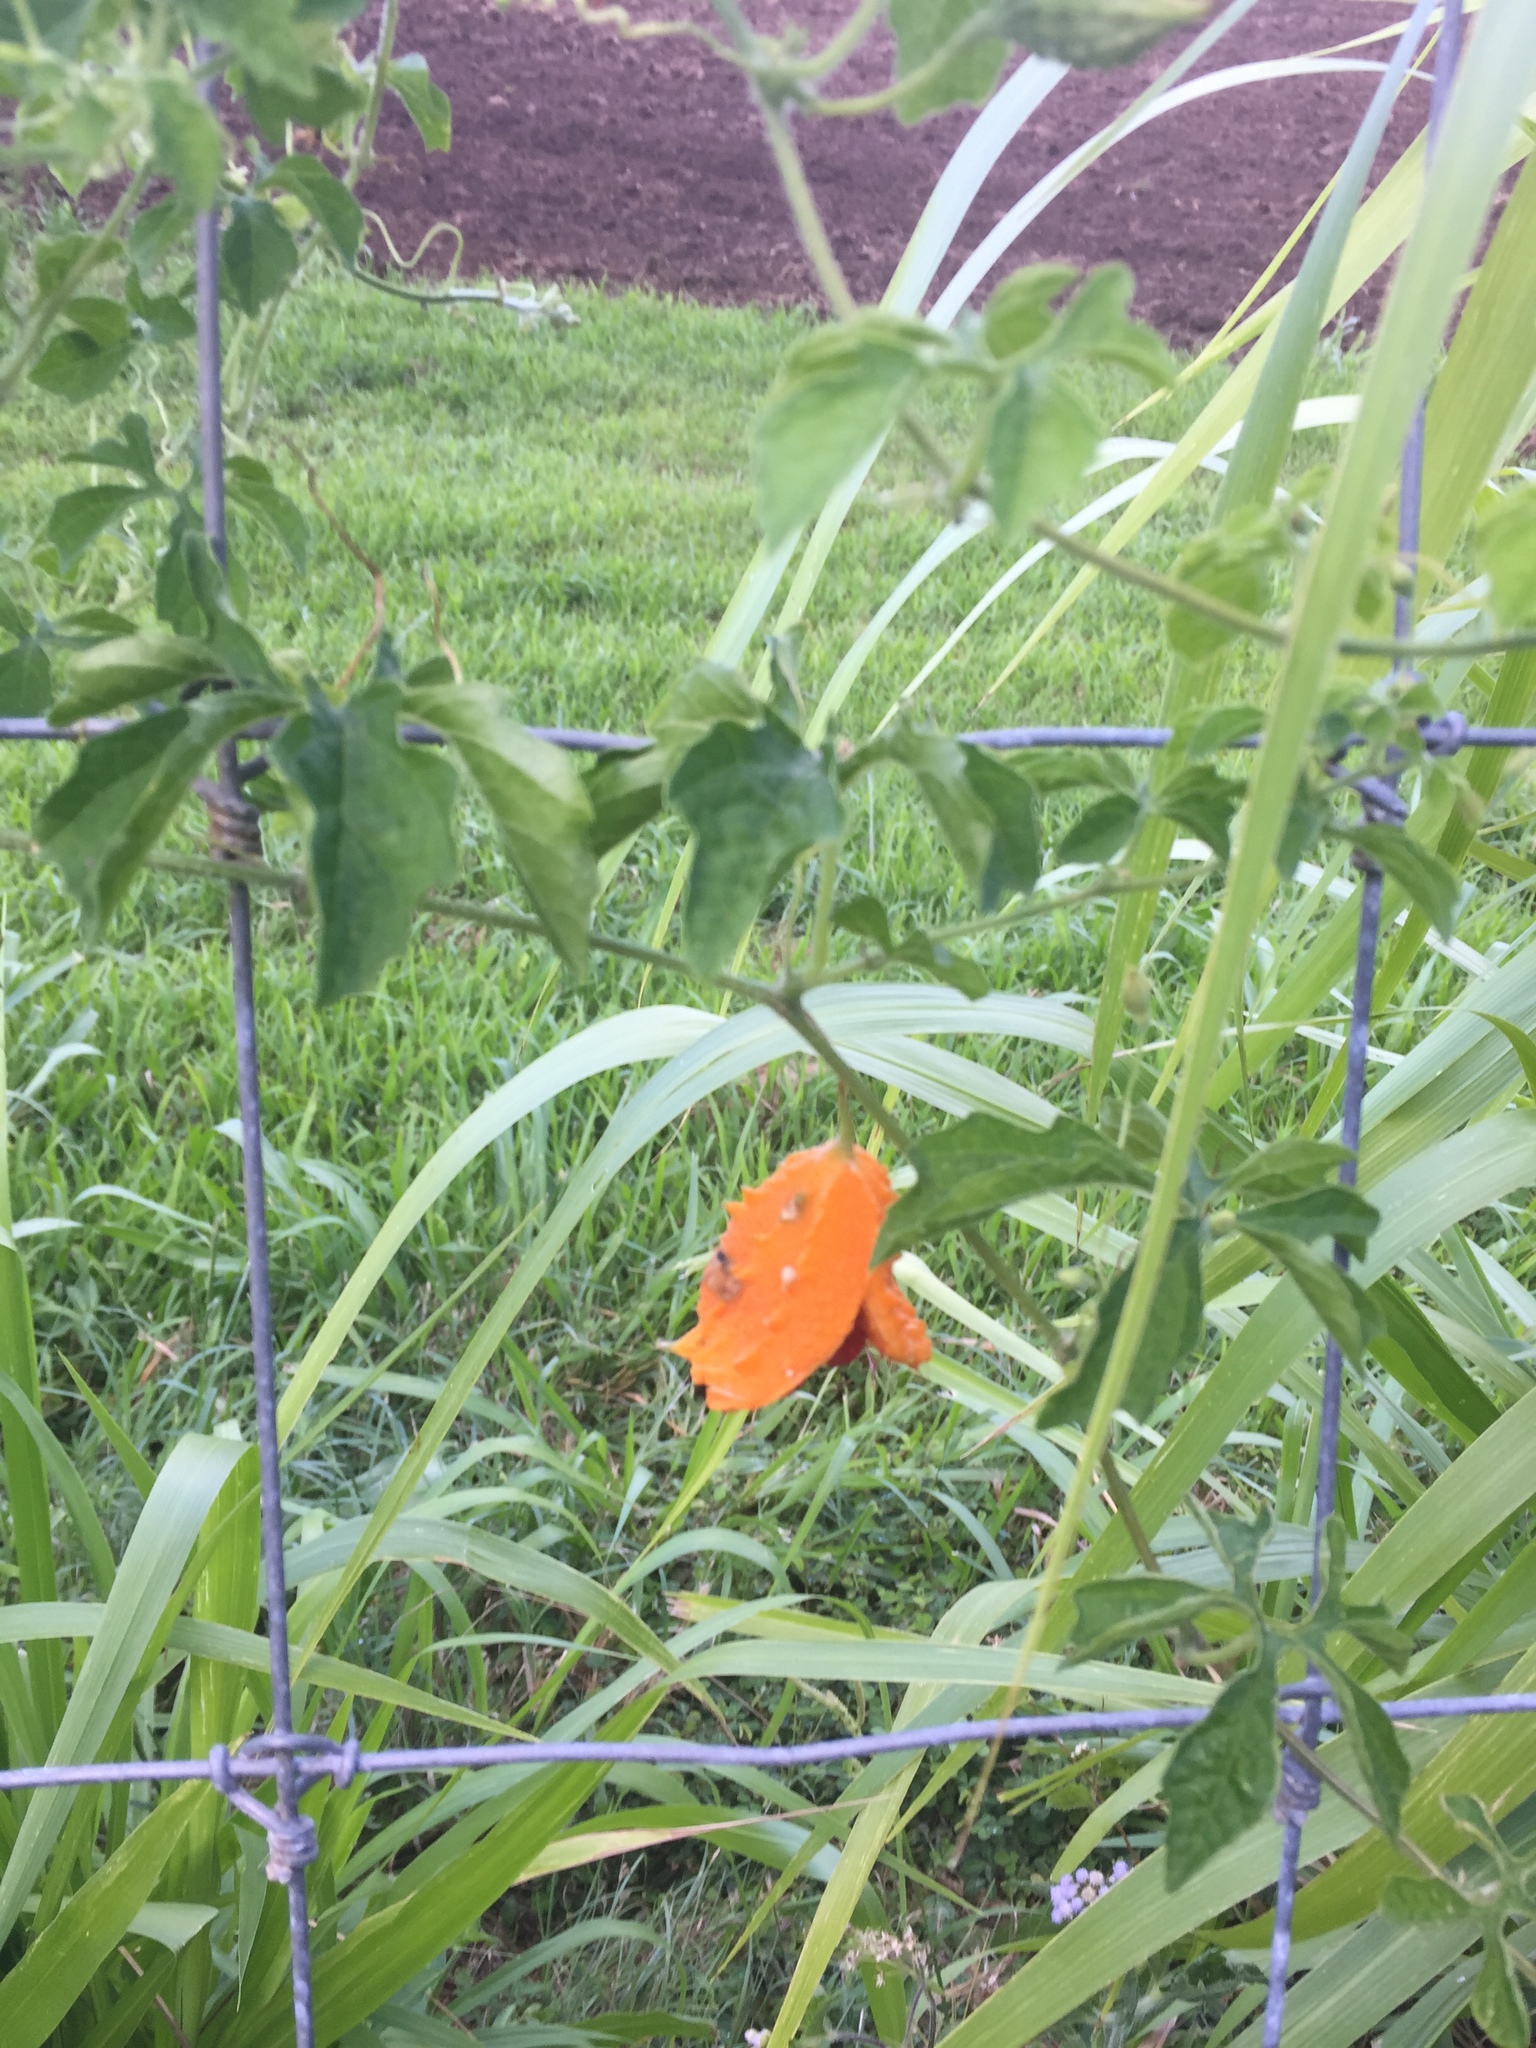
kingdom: Plantae
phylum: Tracheophyta
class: Magnoliopsida
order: Cucurbitales
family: Cucurbitaceae
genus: Momordica
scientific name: Momordica charantia
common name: Balsampear
